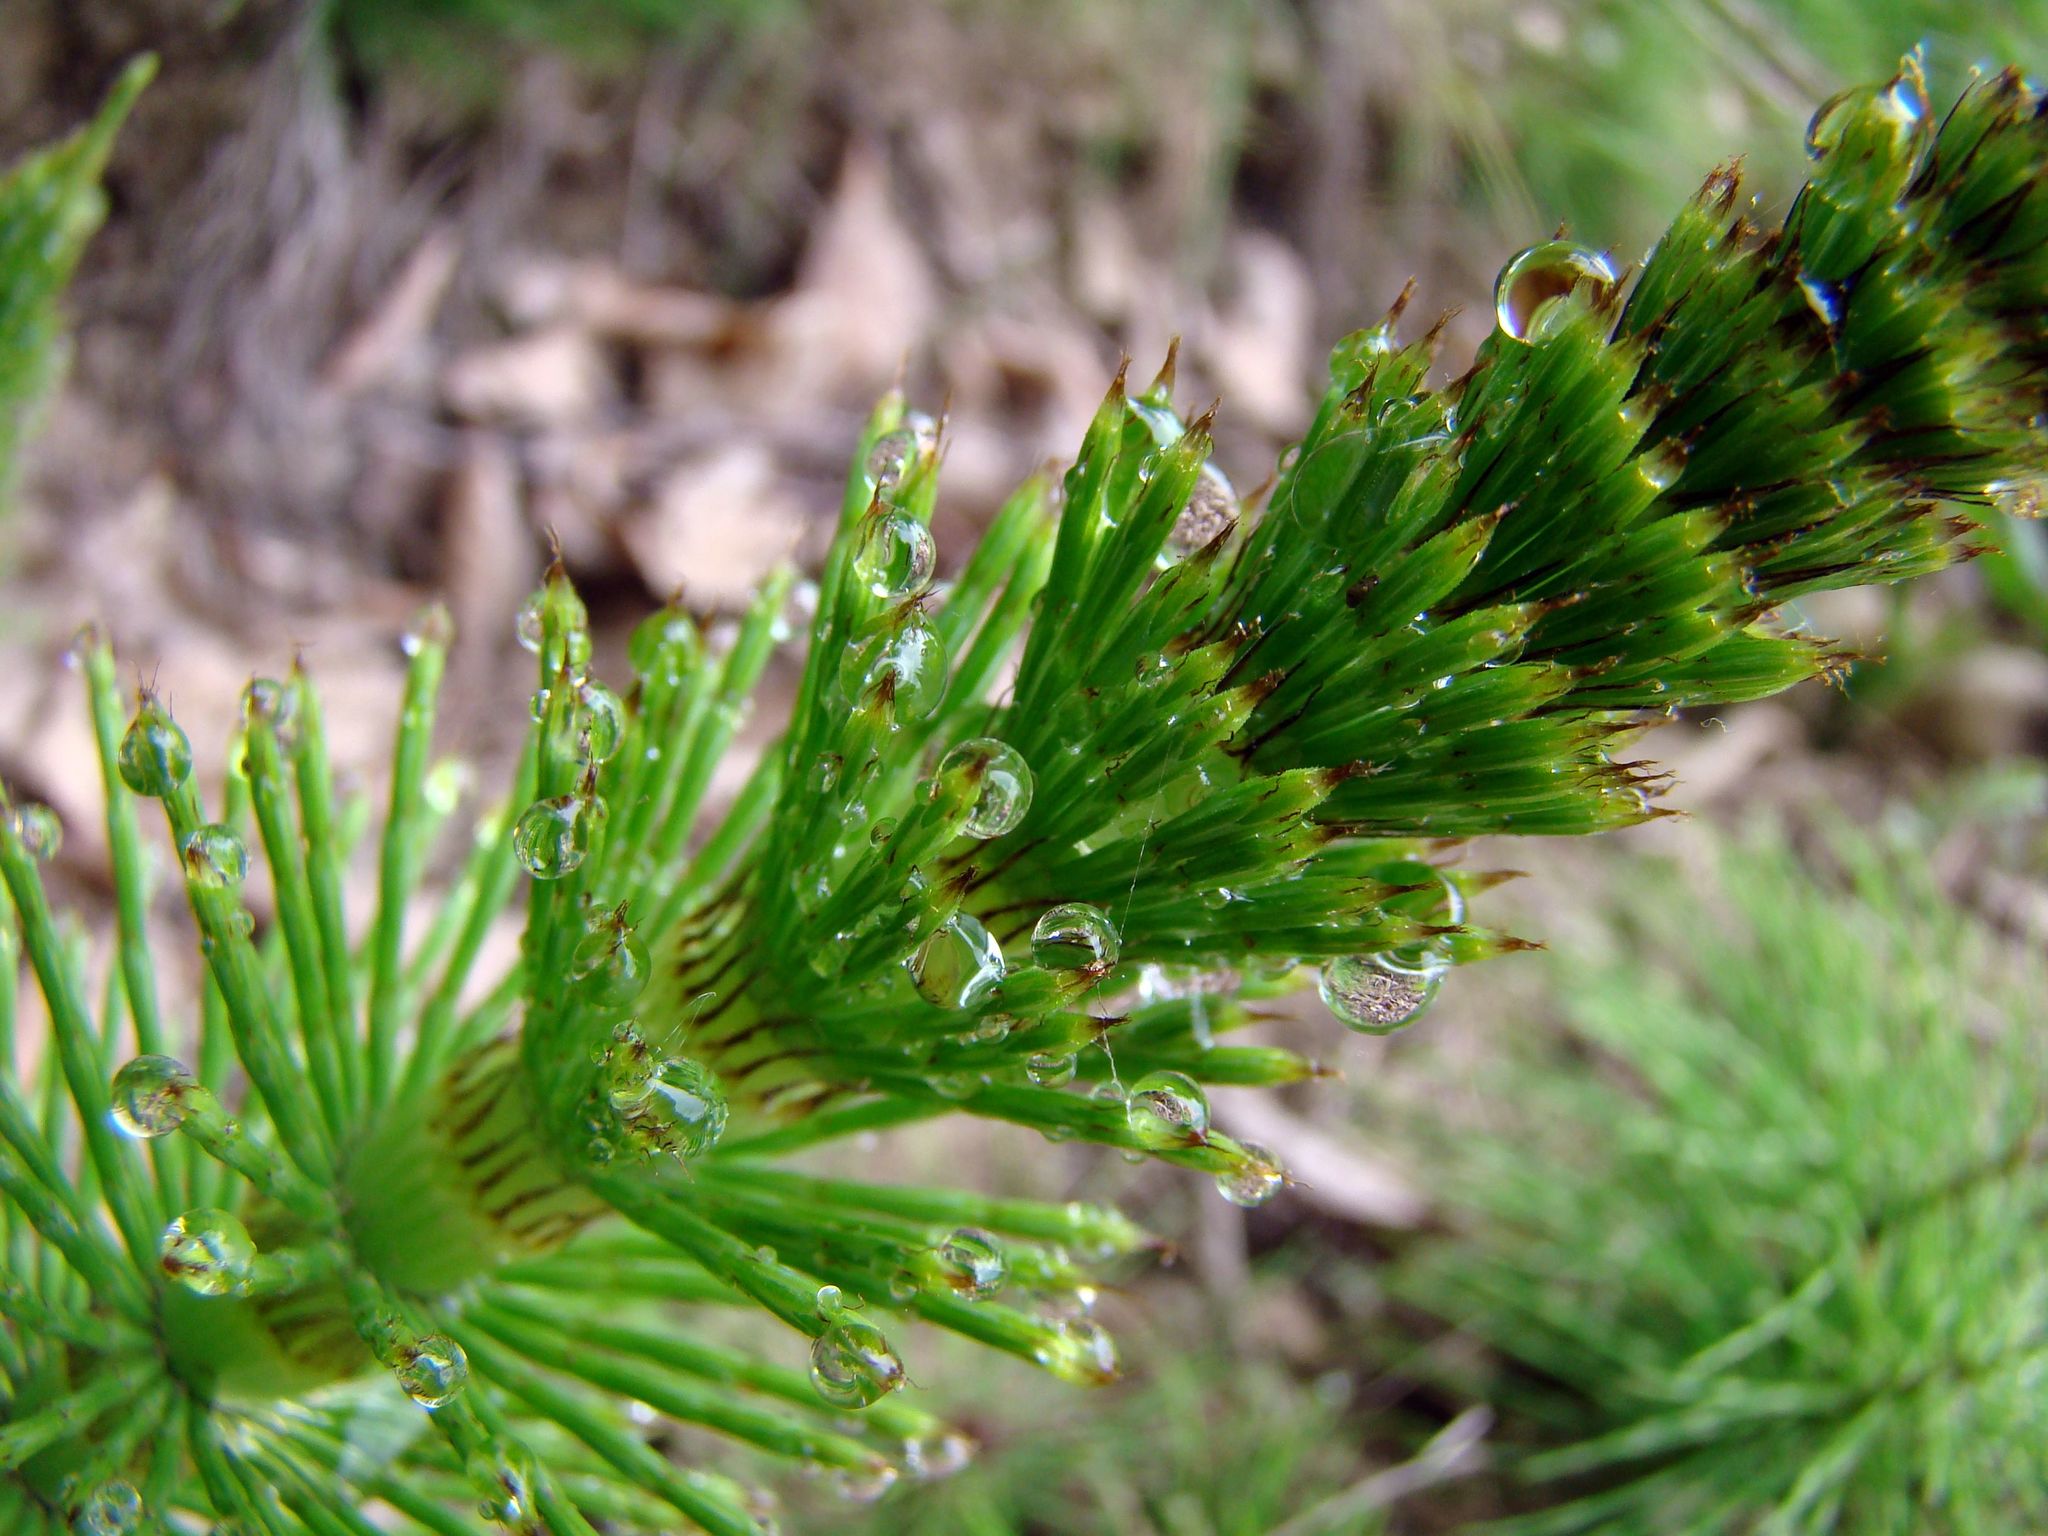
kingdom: Plantae
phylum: Tracheophyta
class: Polypodiopsida
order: Equisetales
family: Equisetaceae
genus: Equisetum
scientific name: Equisetum telmateia
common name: Great horsetail
